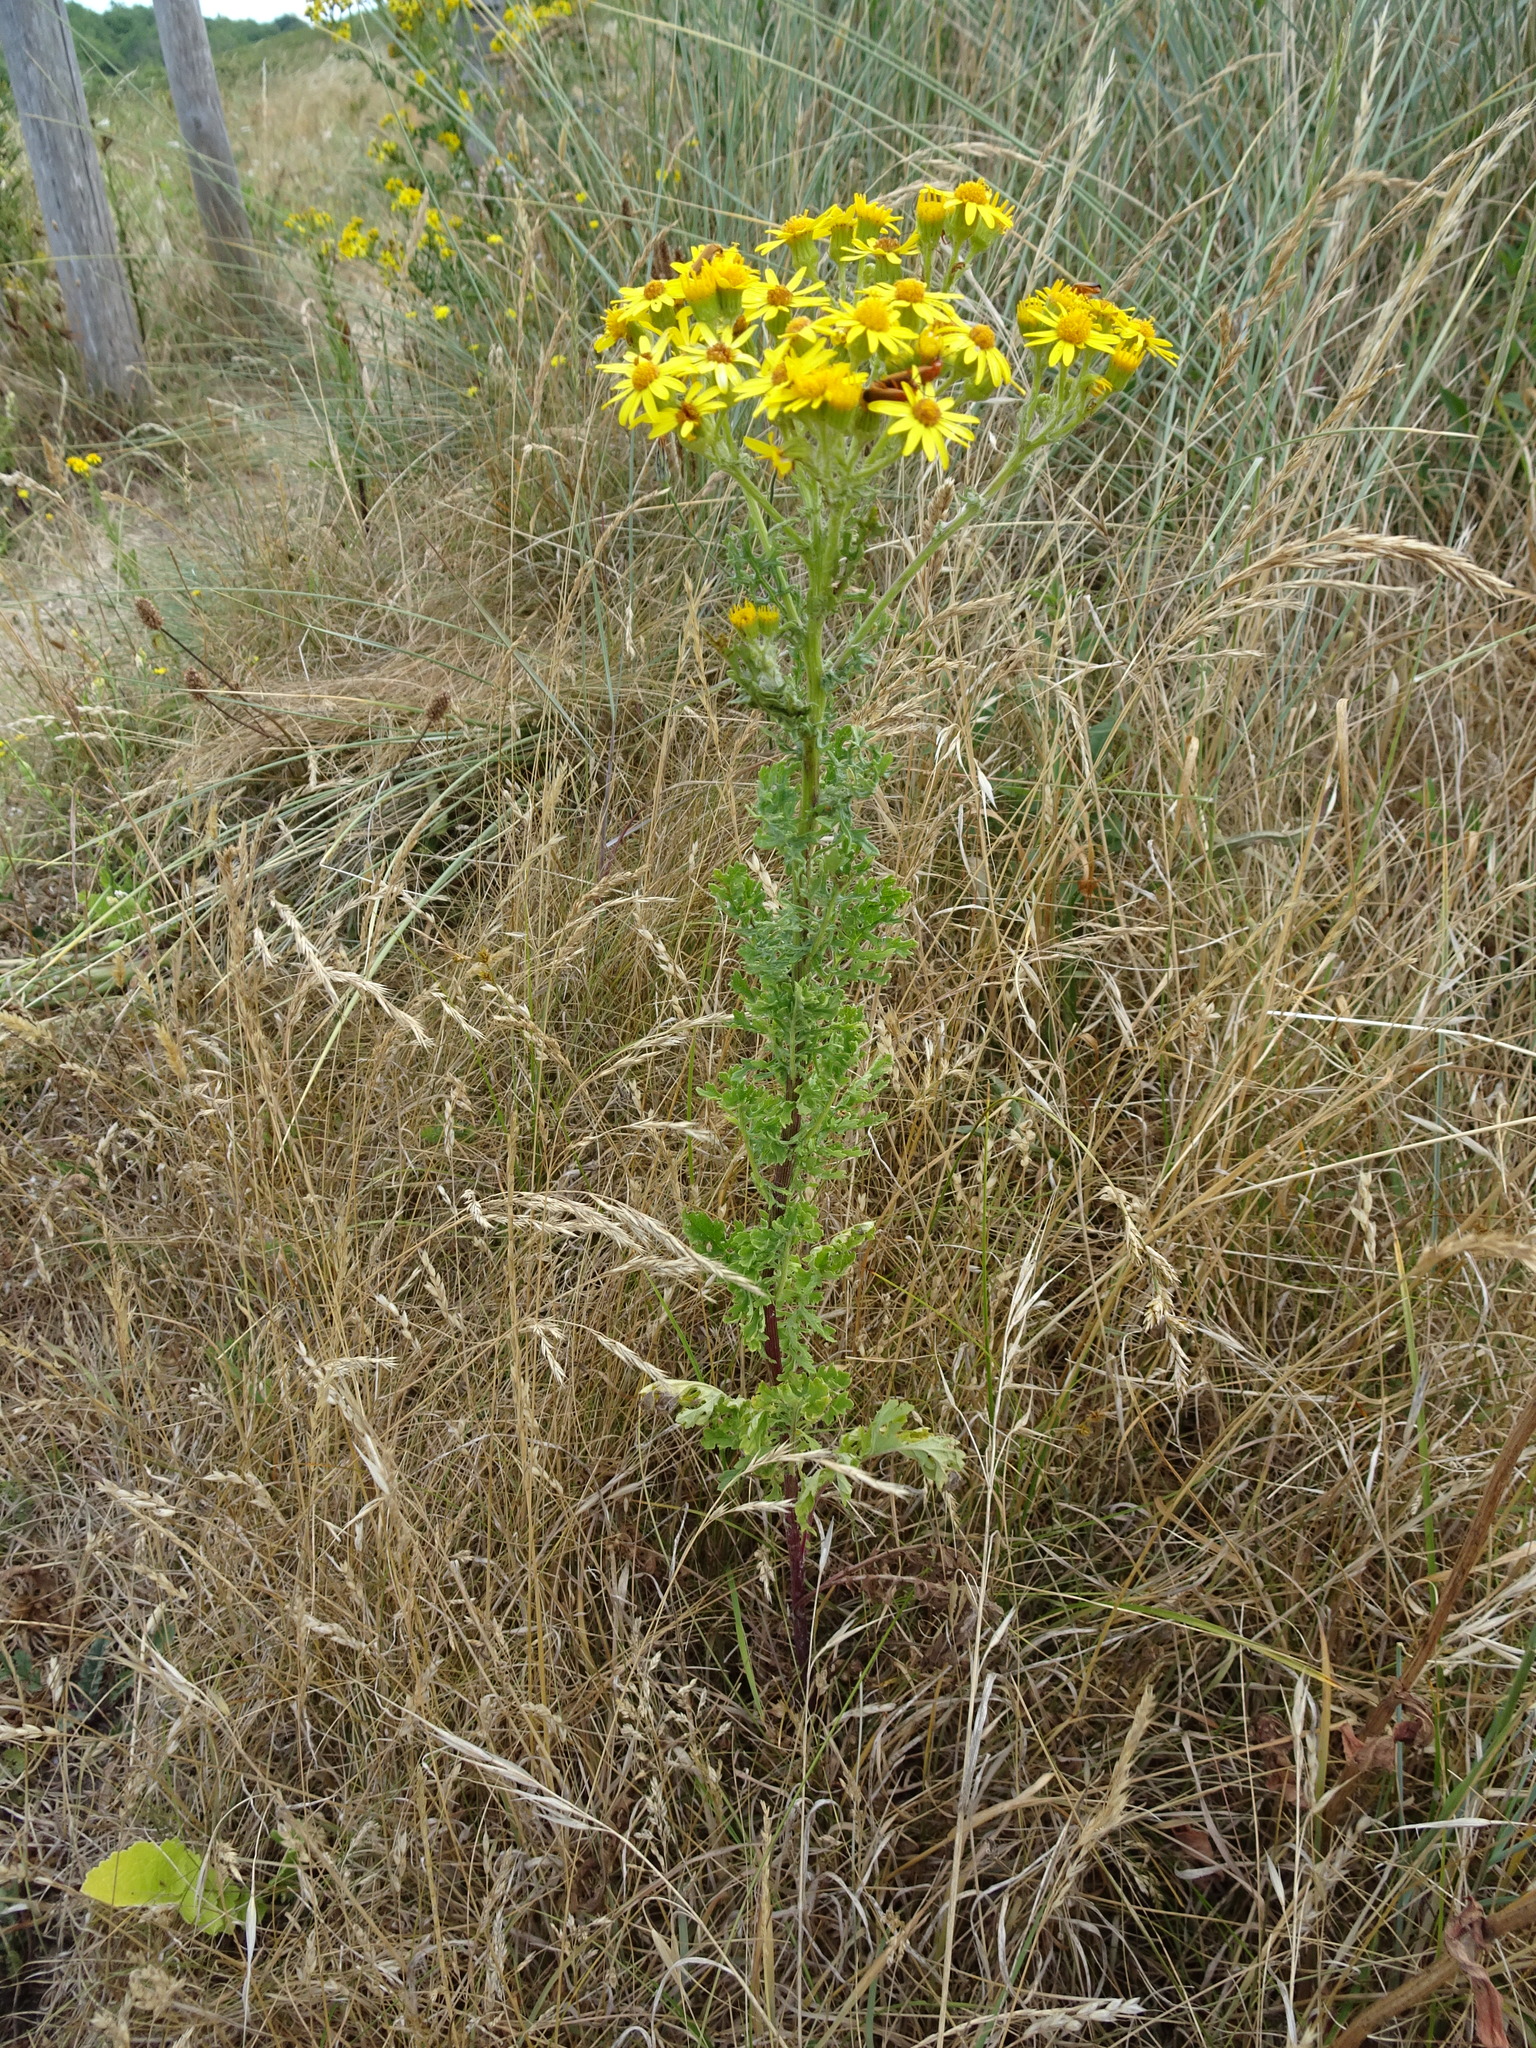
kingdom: Plantae
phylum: Tracheophyta
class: Magnoliopsida
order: Asterales
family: Asteraceae
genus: Jacobaea
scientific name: Jacobaea vulgaris
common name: Stinking willie
